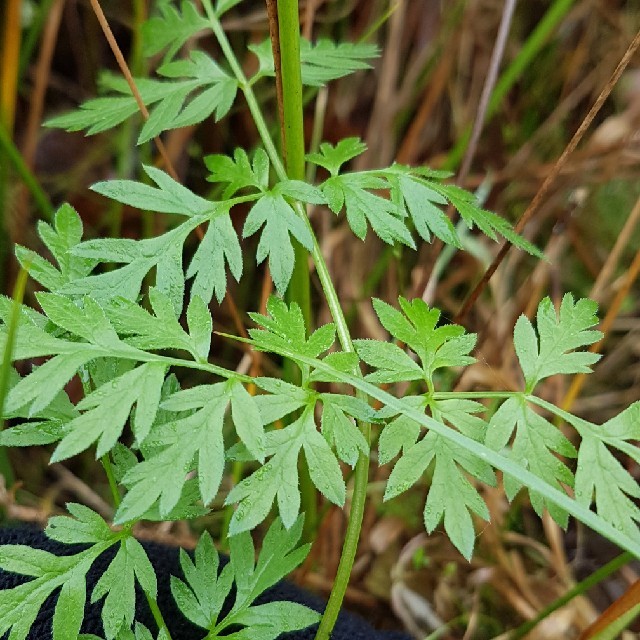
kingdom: Plantae
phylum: Tracheophyta
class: Magnoliopsida
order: Apiales
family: Apiaceae
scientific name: Apiaceae
